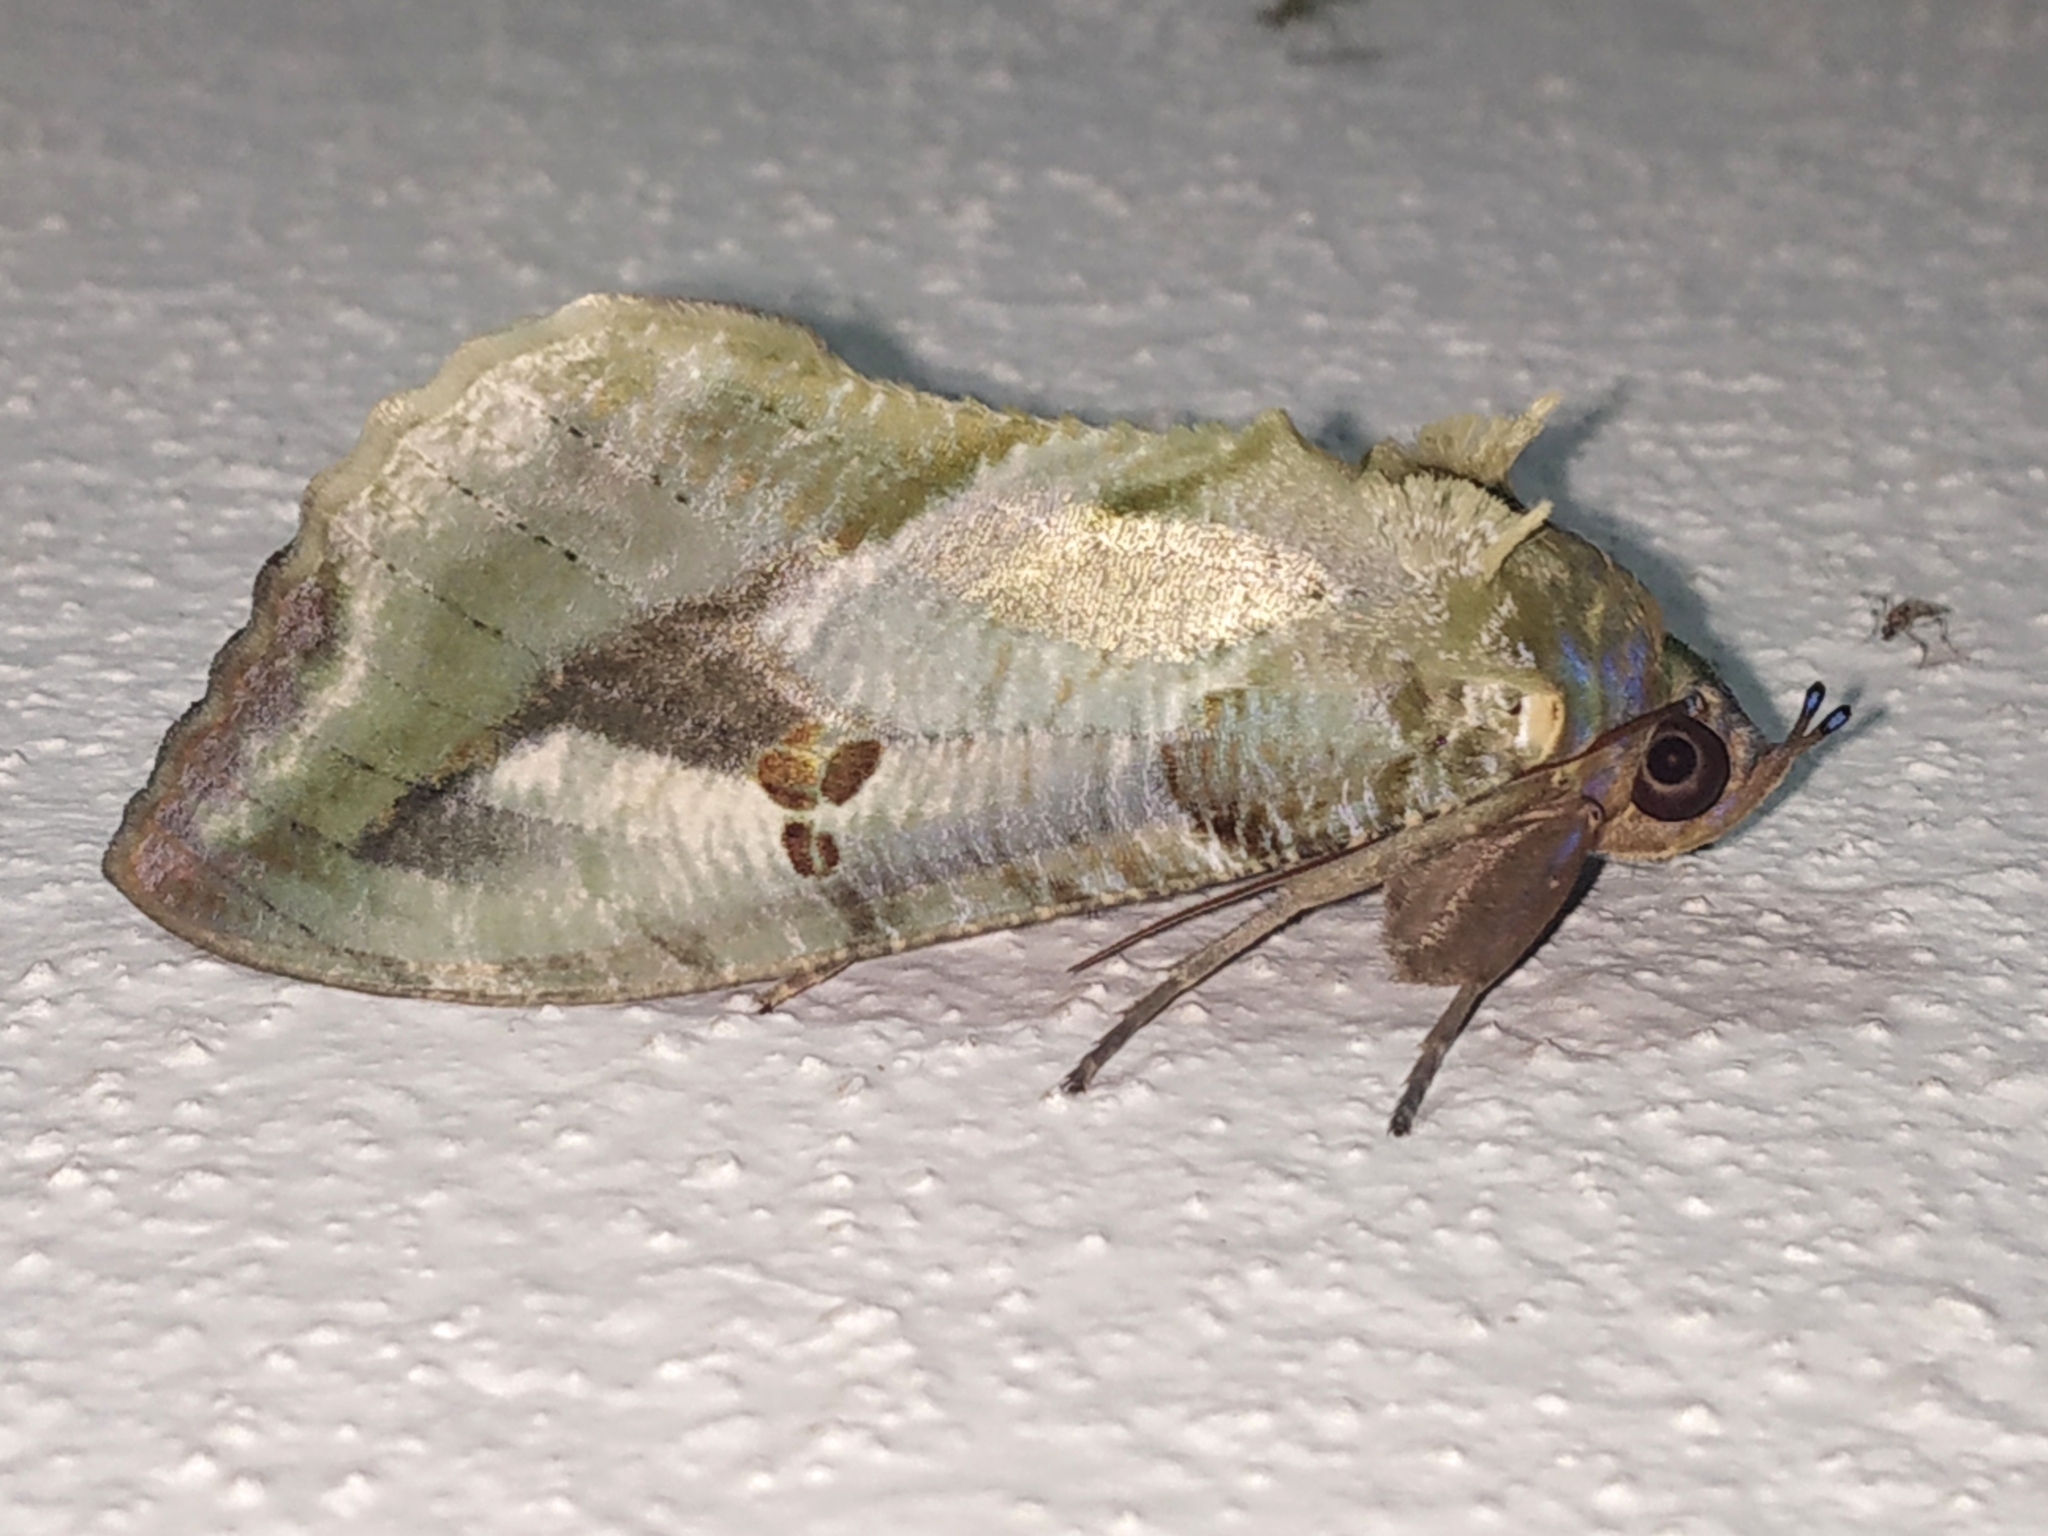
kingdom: Animalia
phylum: Arthropoda
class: Insecta
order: Lepidoptera
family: Erebidae
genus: Eudocima
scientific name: Eudocima materna
